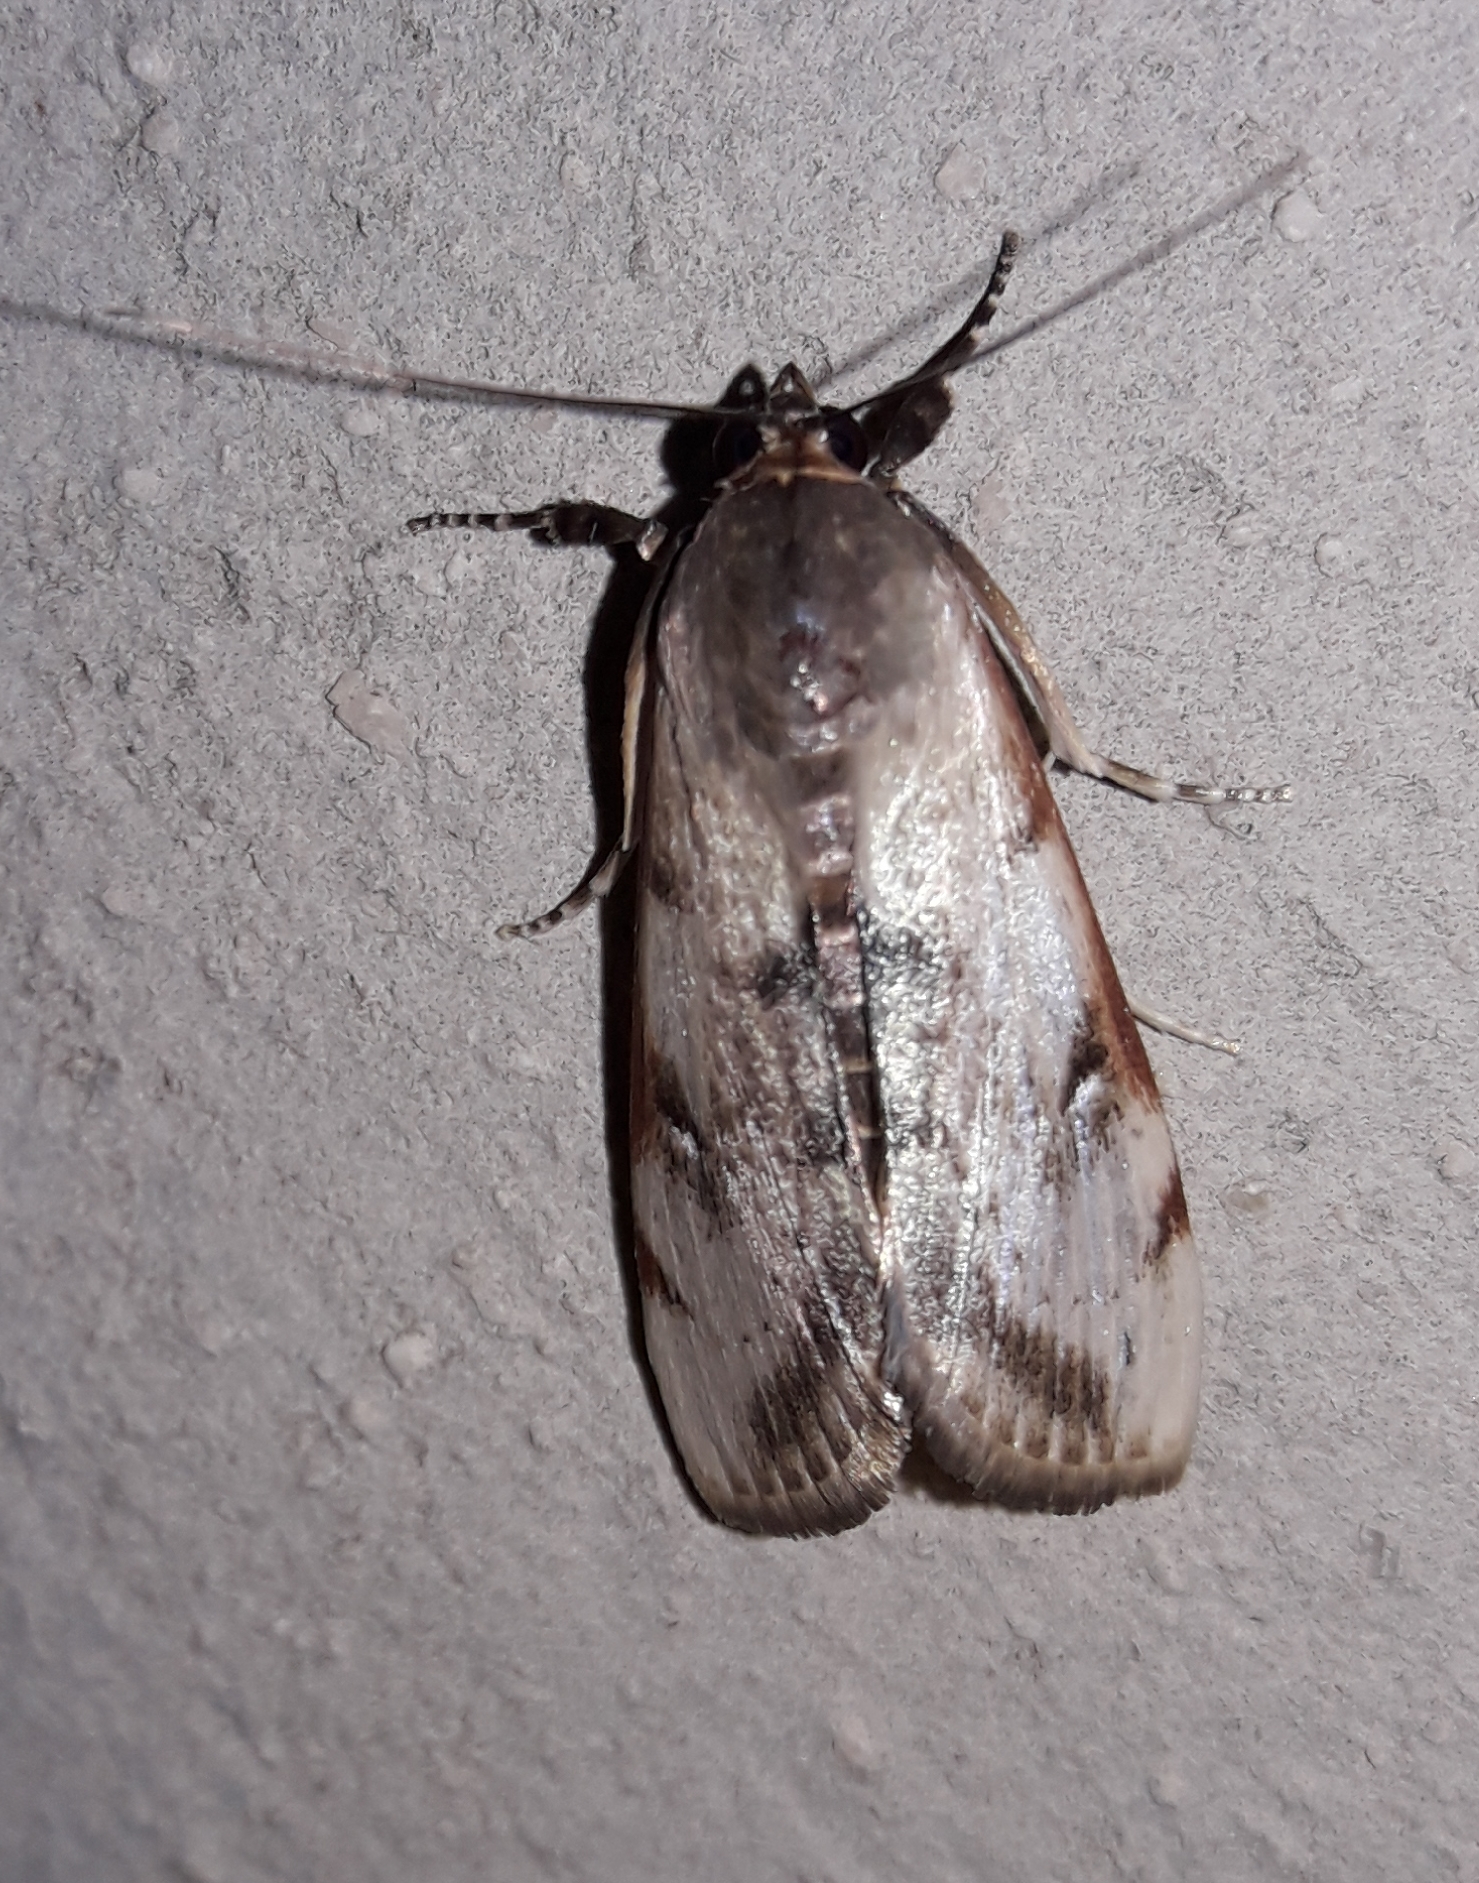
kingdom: Animalia
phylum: Arthropoda
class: Insecta
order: Lepidoptera
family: Crambidae
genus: Cliniodes
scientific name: Cliniodes euphrosinalis
